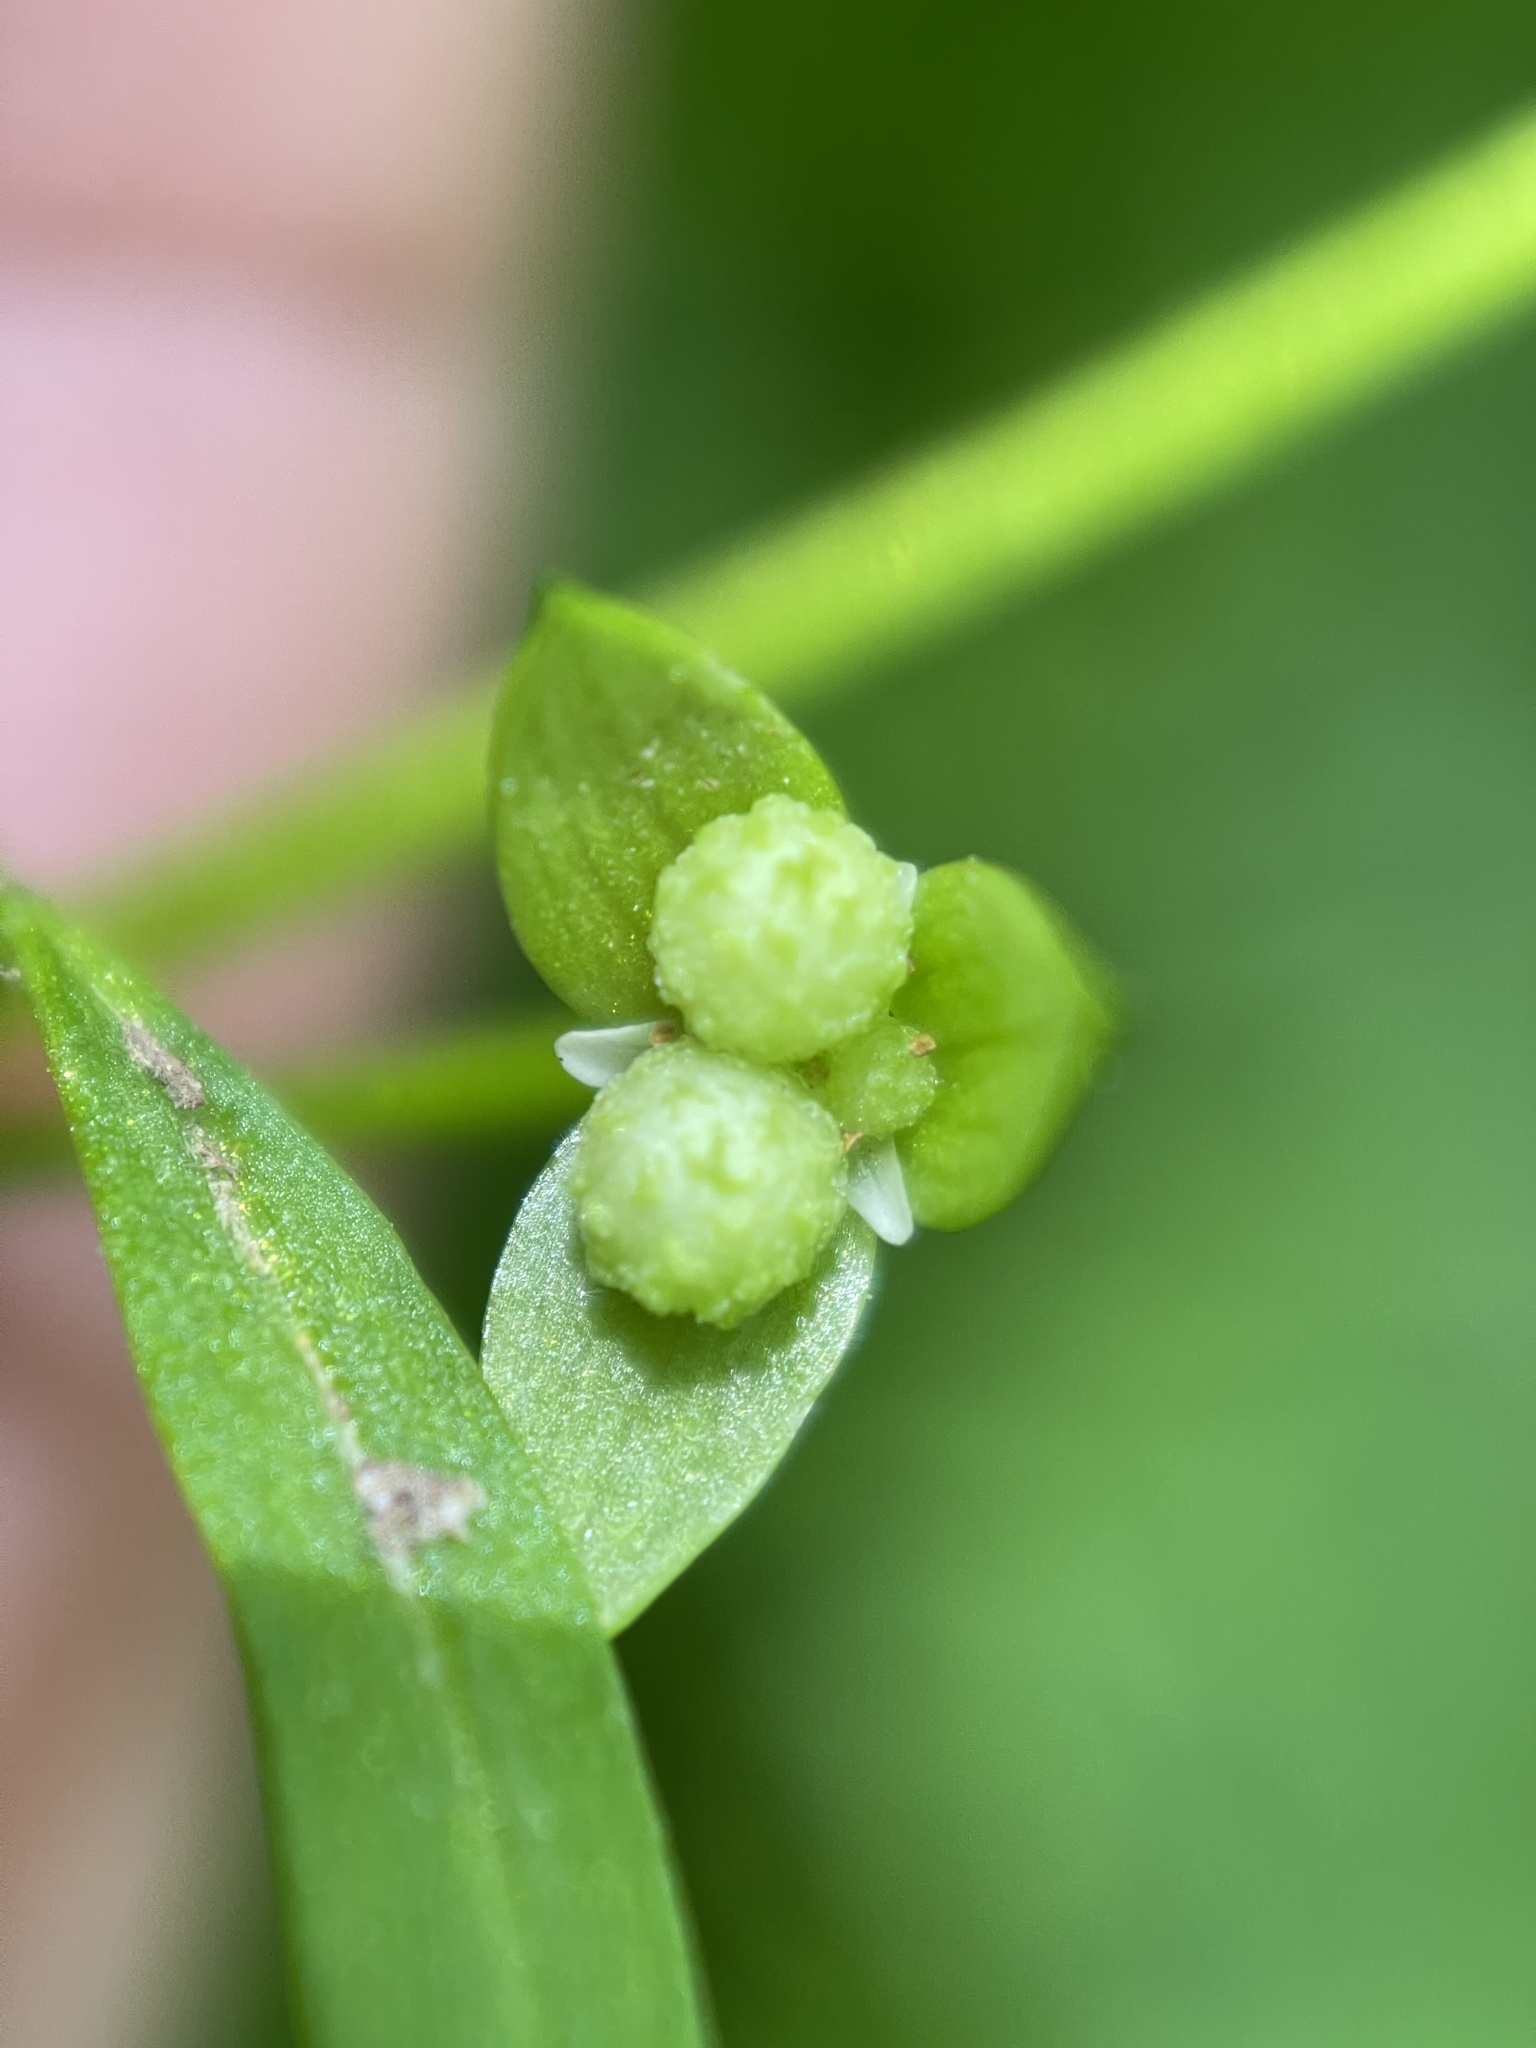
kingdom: Plantae
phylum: Tracheophyta
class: Magnoliopsida
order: Brassicales
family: Limnanthaceae
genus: Floerkea
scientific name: Floerkea proserpinacoides
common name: False mermaid
